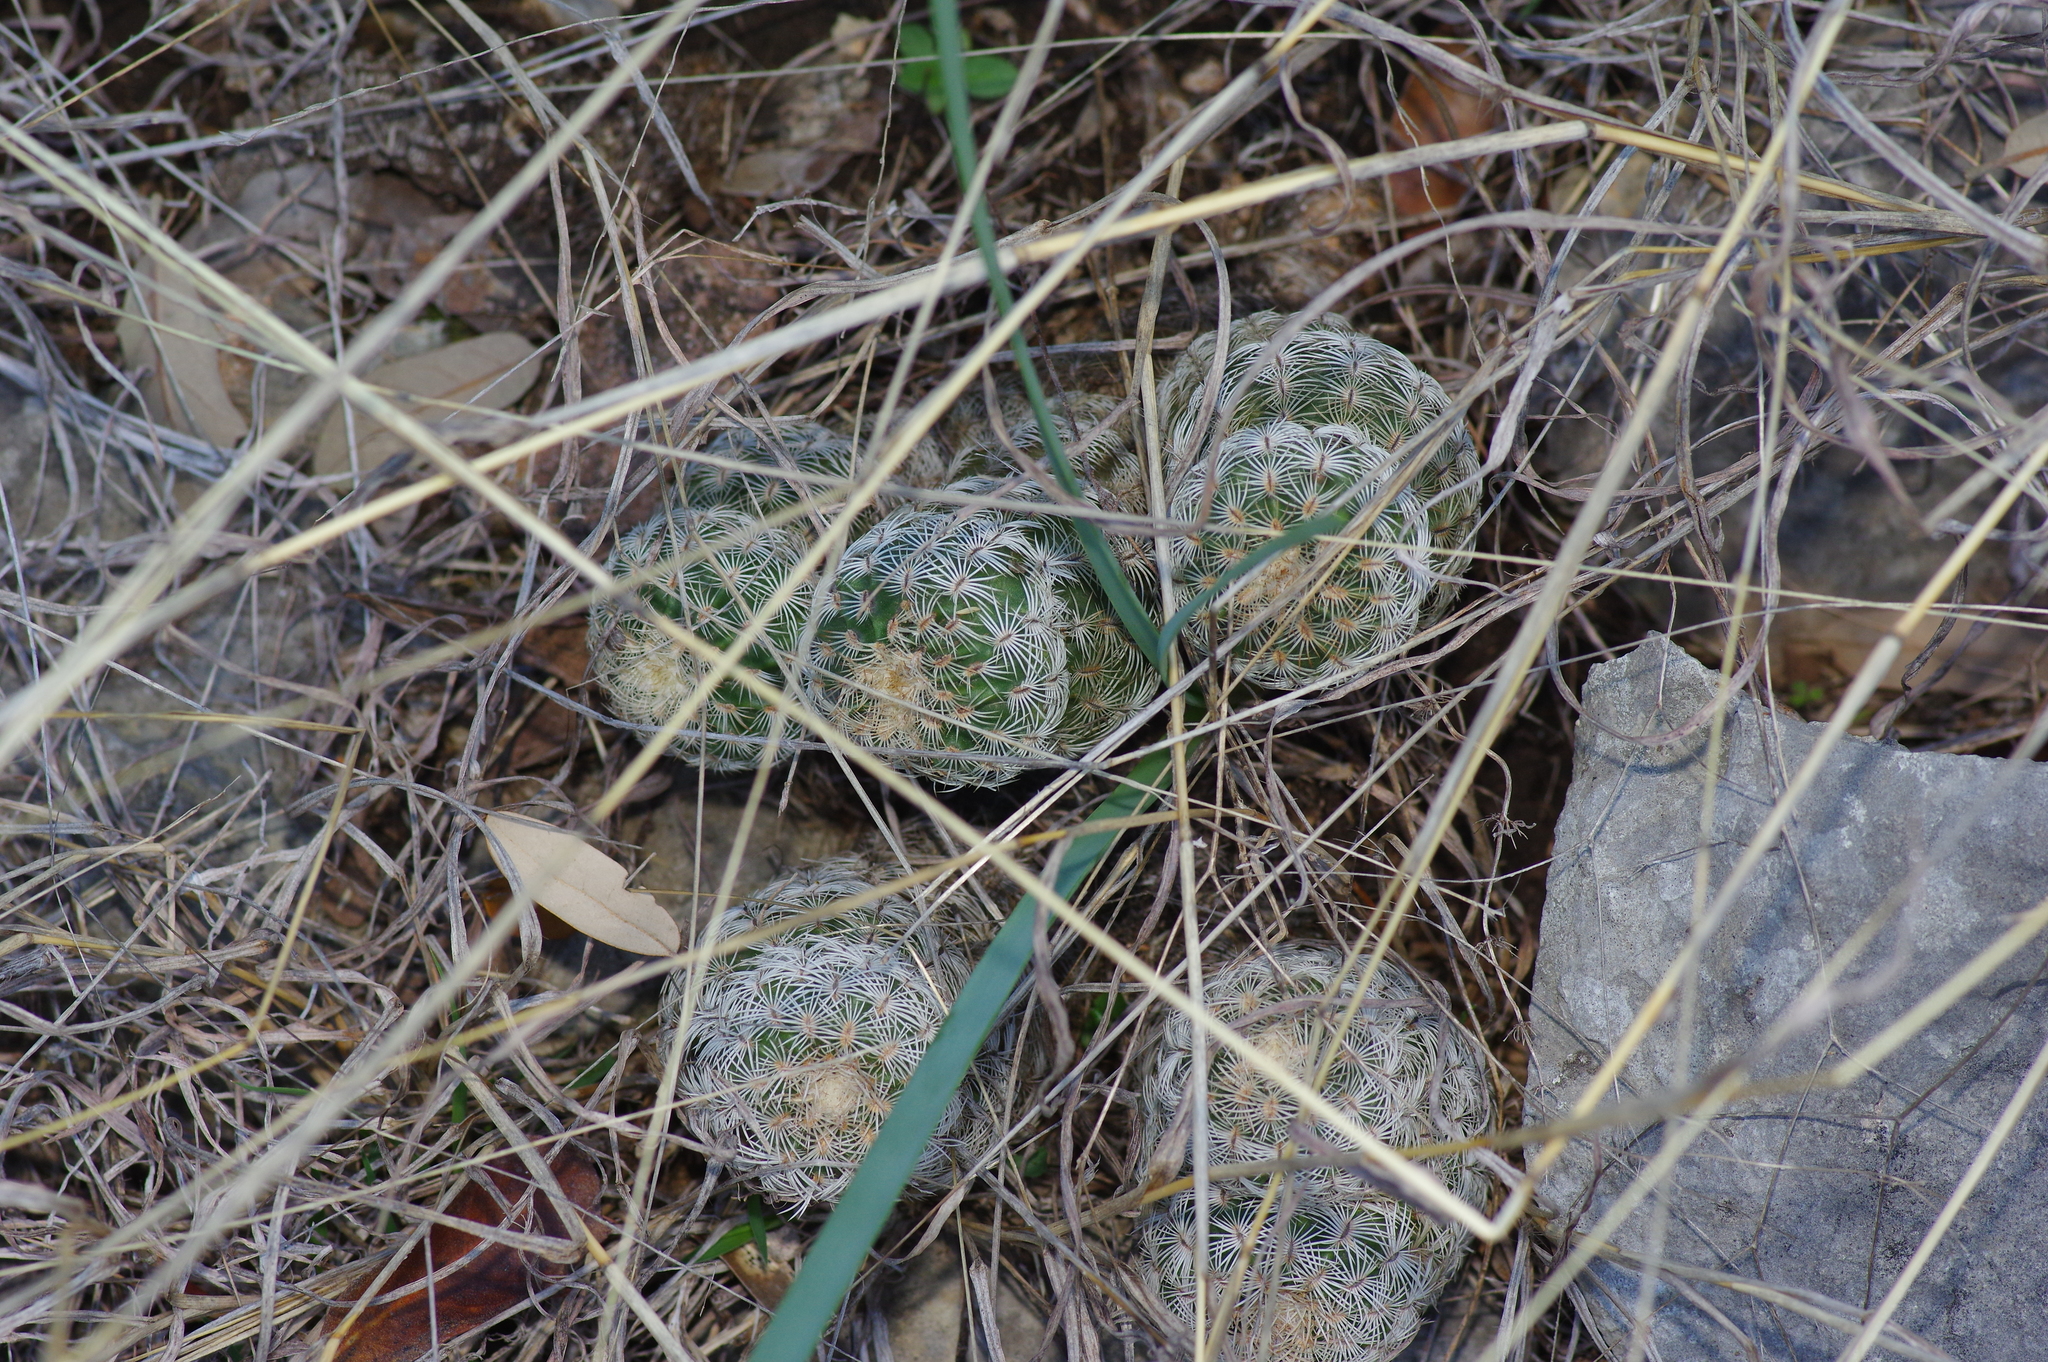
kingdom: Plantae
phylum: Tracheophyta
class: Magnoliopsida
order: Caryophyllales
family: Cactaceae
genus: Echinocereus
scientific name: Echinocereus reichenbachii
